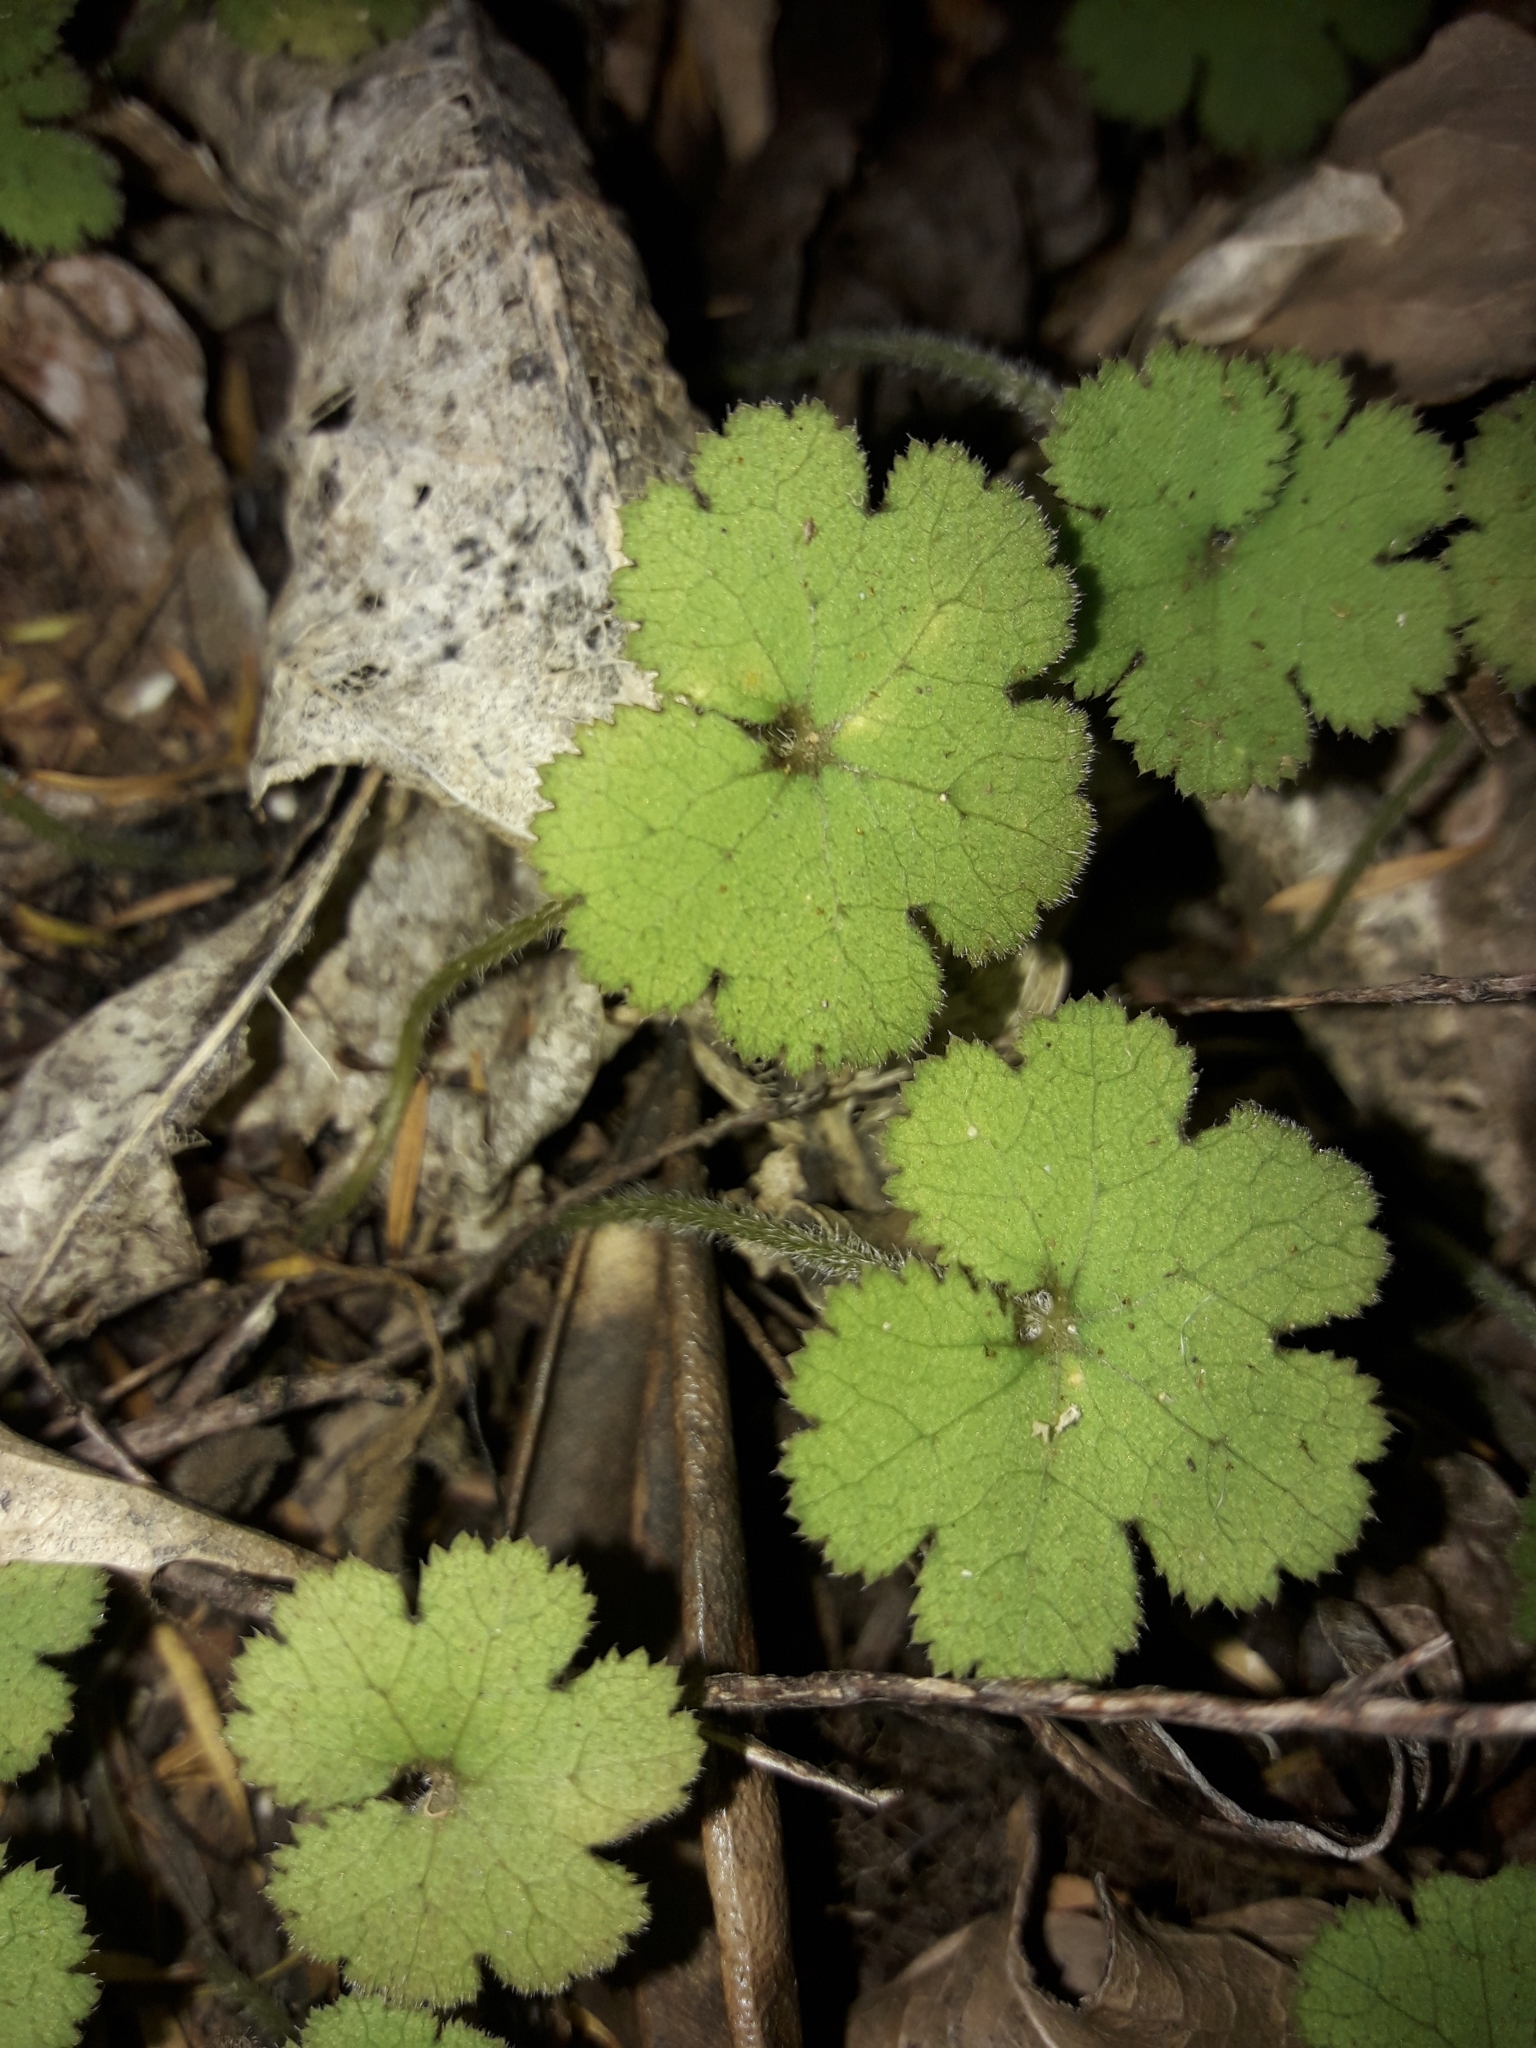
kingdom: Plantae
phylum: Tracheophyta
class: Magnoliopsida
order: Apiales
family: Araliaceae
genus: Hydrocotyle
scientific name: Hydrocotyle elongata
